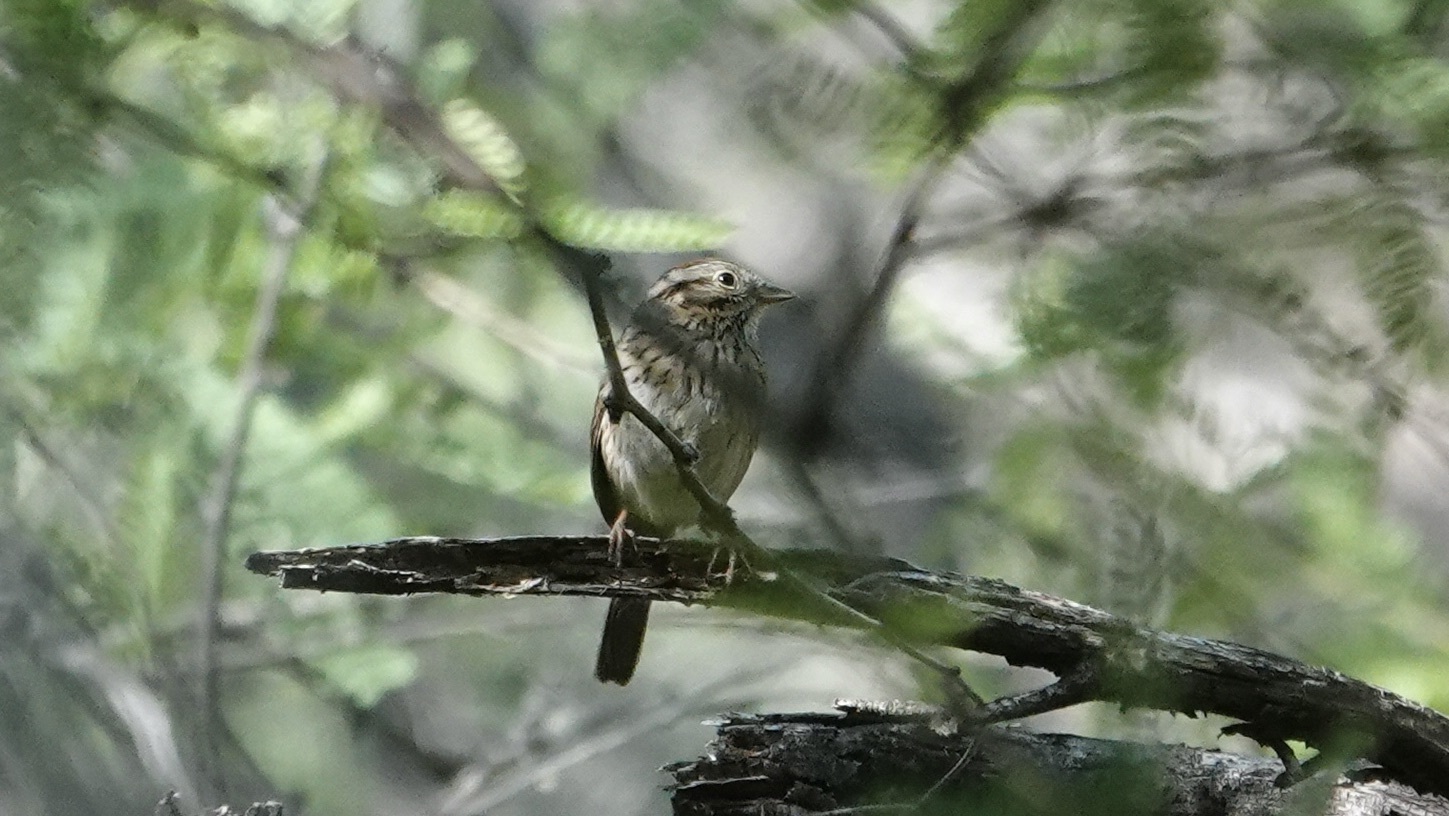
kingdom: Animalia
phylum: Chordata
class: Aves
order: Passeriformes
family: Passerellidae
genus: Melospiza
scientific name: Melospiza lincolnii
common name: Lincoln's sparrow
